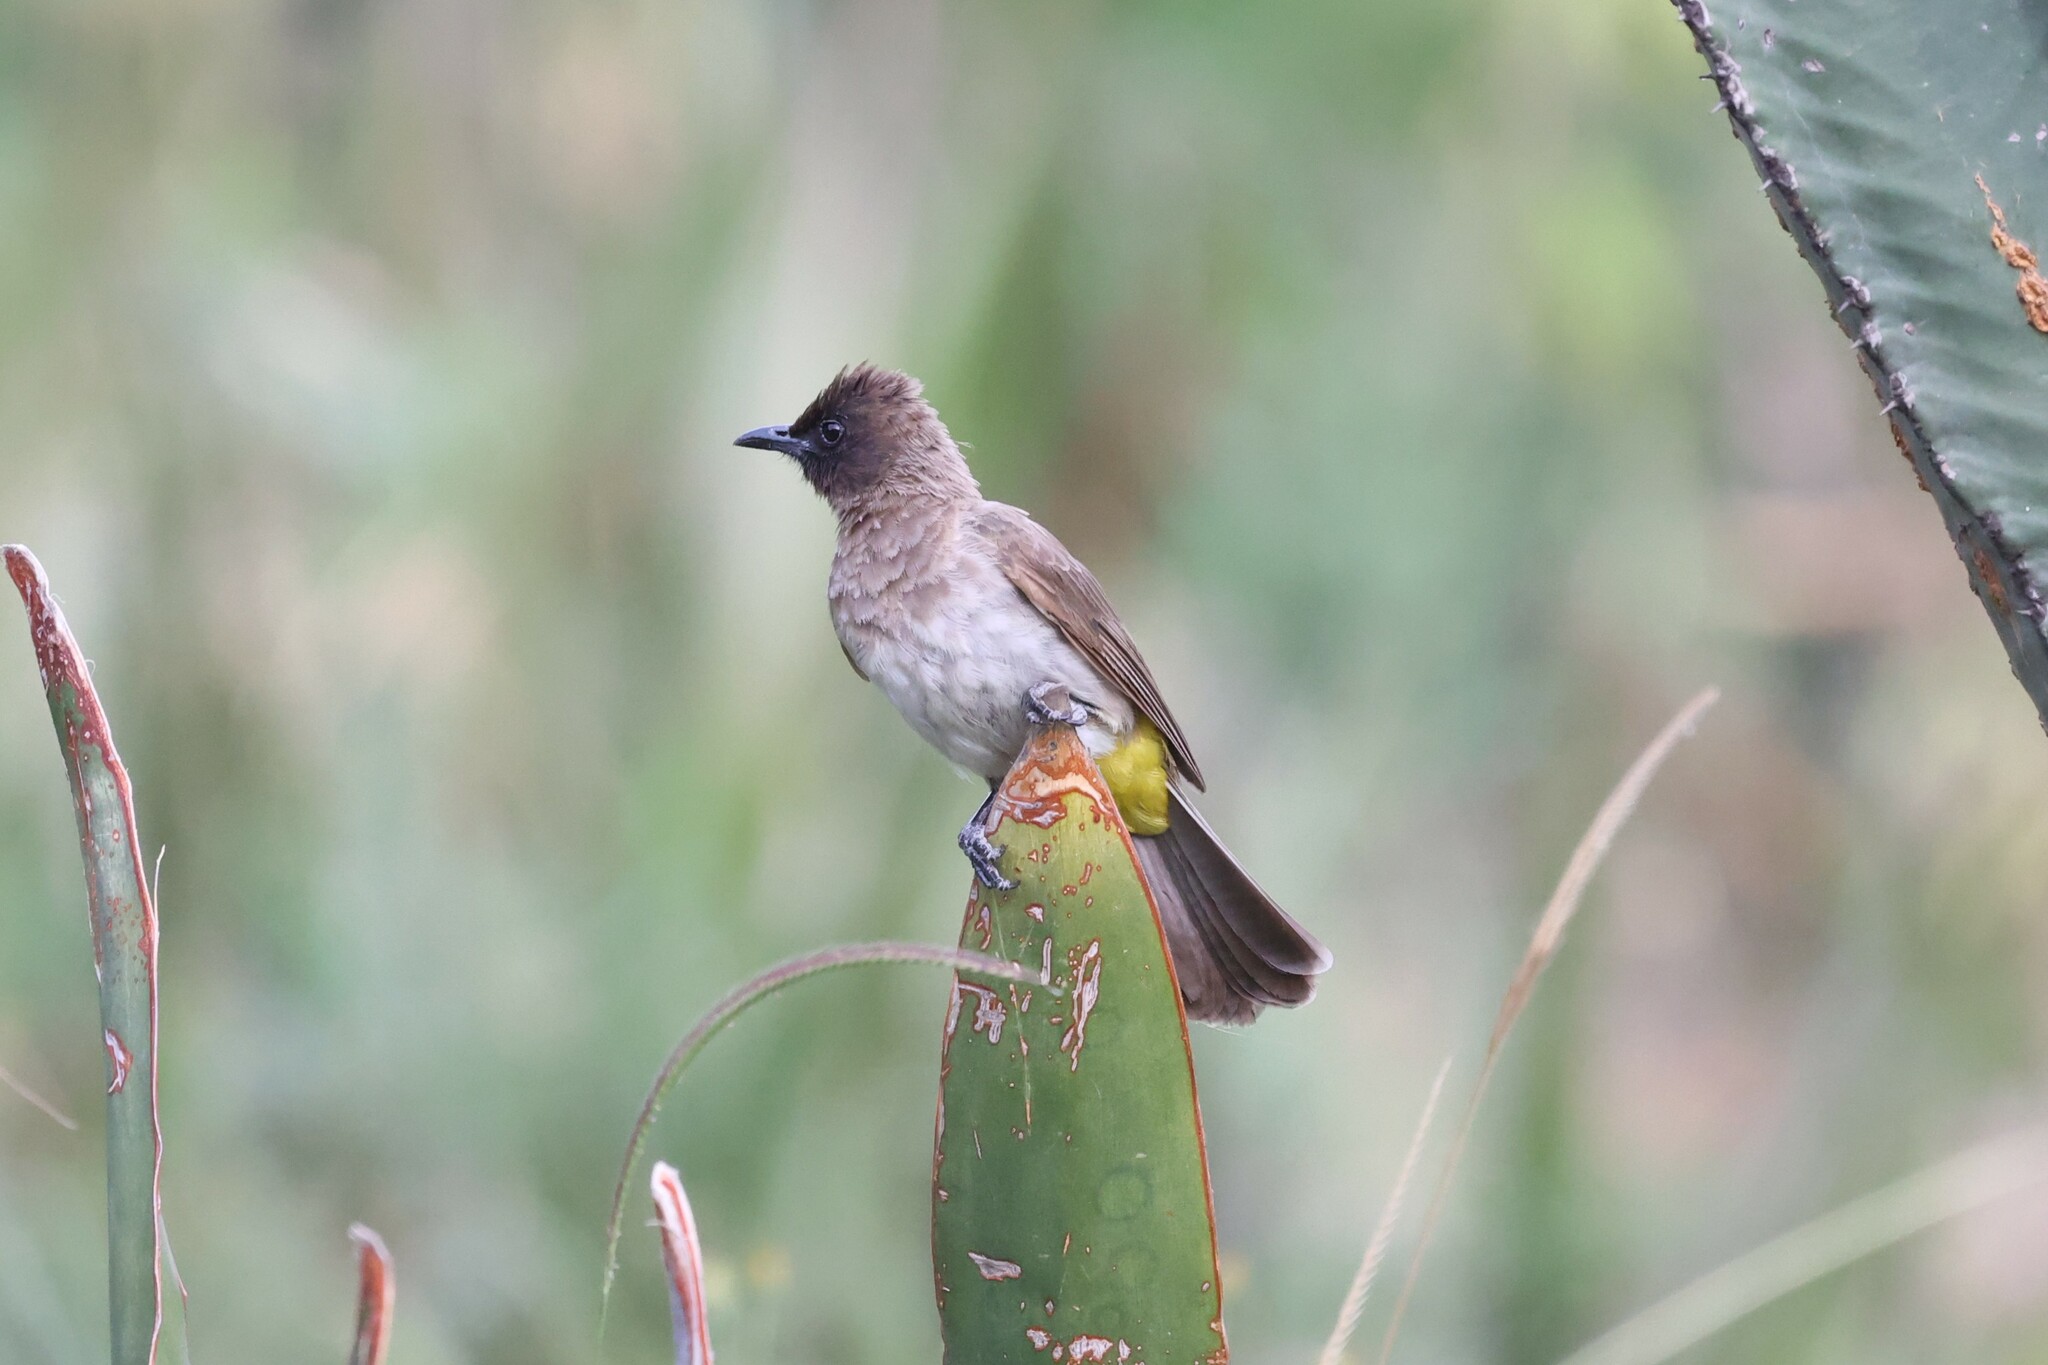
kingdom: Animalia
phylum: Chordata
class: Aves
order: Passeriformes
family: Pycnonotidae
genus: Pycnonotus
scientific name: Pycnonotus barbatus
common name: Common bulbul
